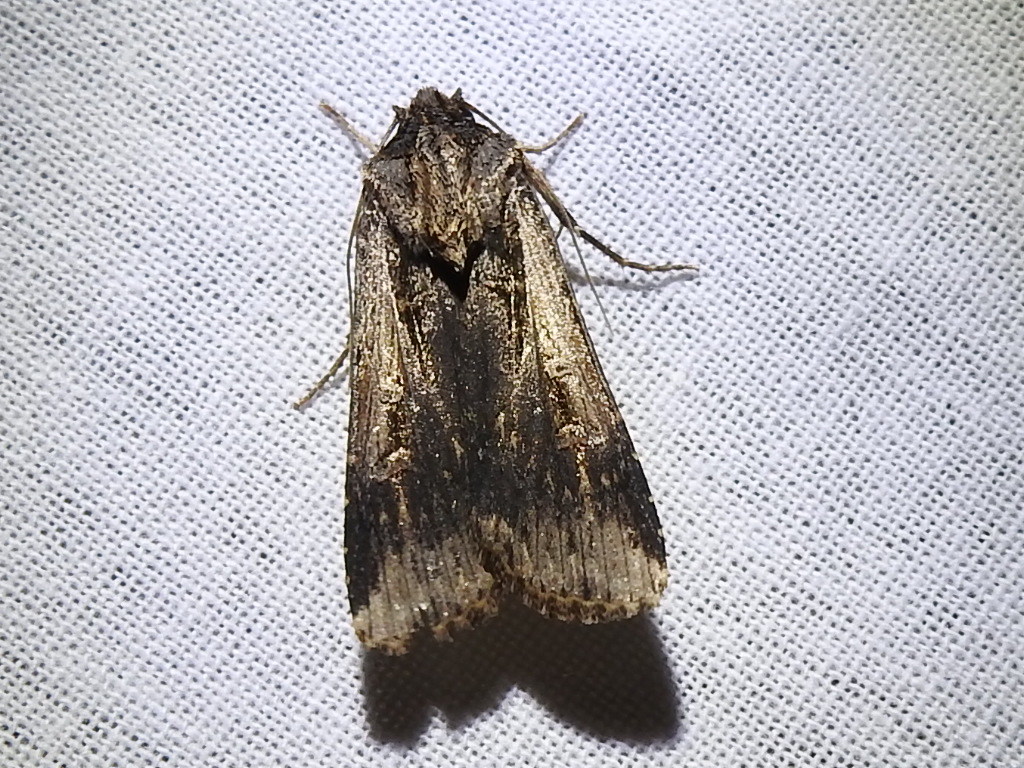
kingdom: Animalia
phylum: Arthropoda
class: Insecta
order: Lepidoptera
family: Noctuidae
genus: Feltia
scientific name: Feltia subterranea
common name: Granulate cutworm
